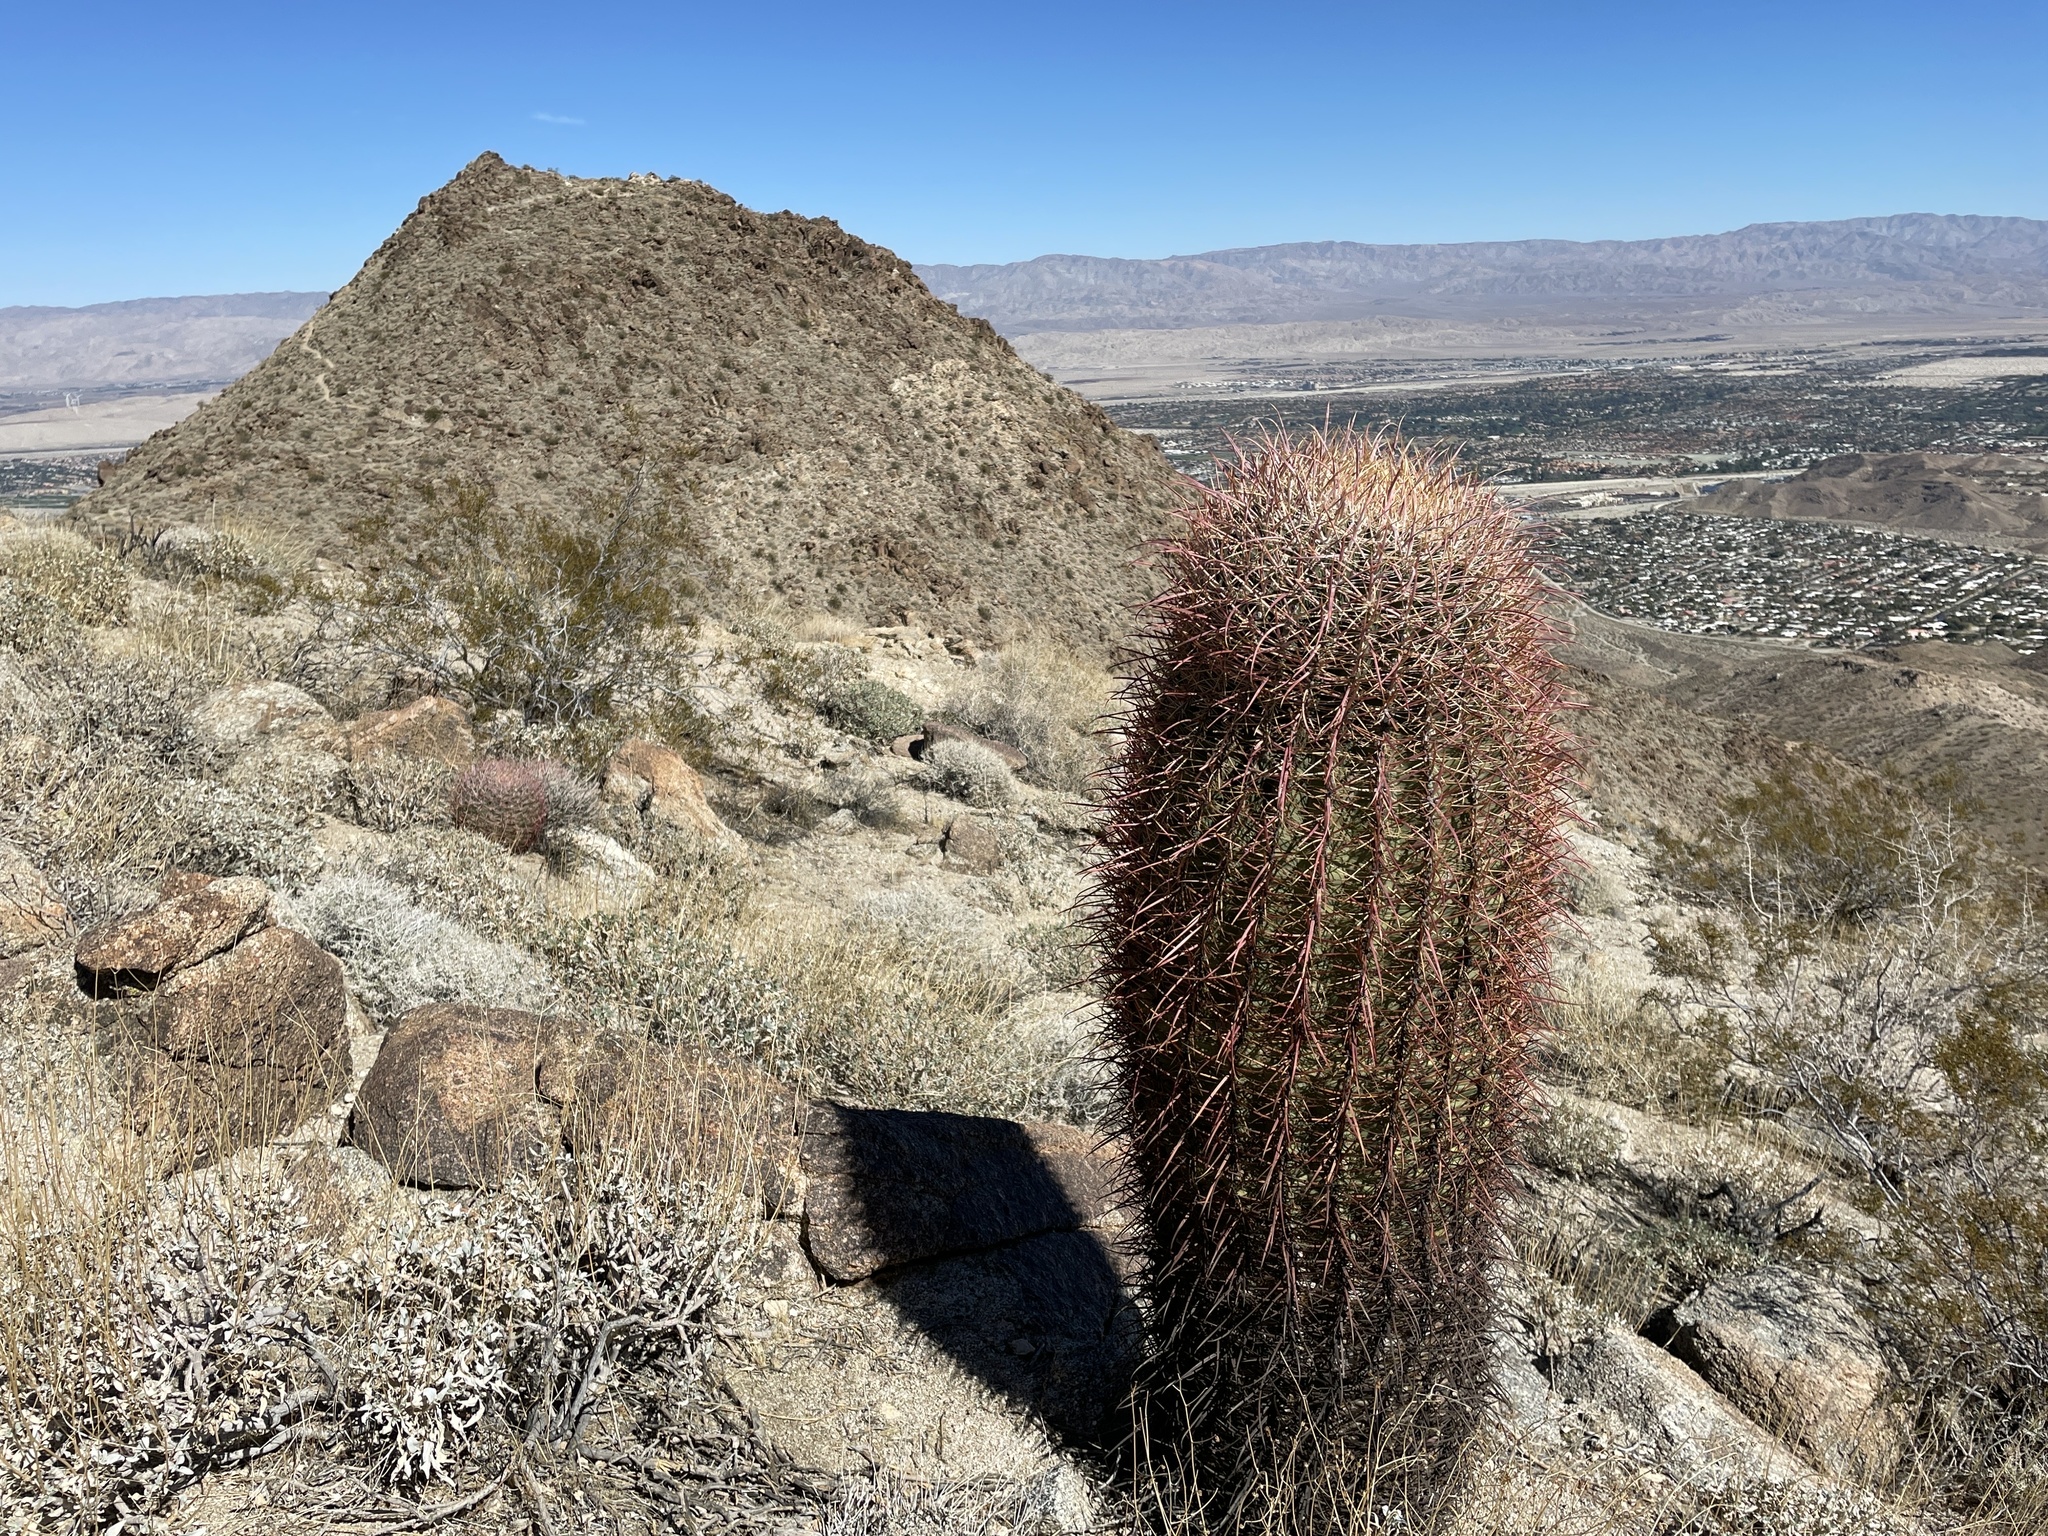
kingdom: Plantae
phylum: Tracheophyta
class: Magnoliopsida
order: Caryophyllales
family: Cactaceae
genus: Ferocactus
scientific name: Ferocactus cylindraceus
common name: California barrel cactus
